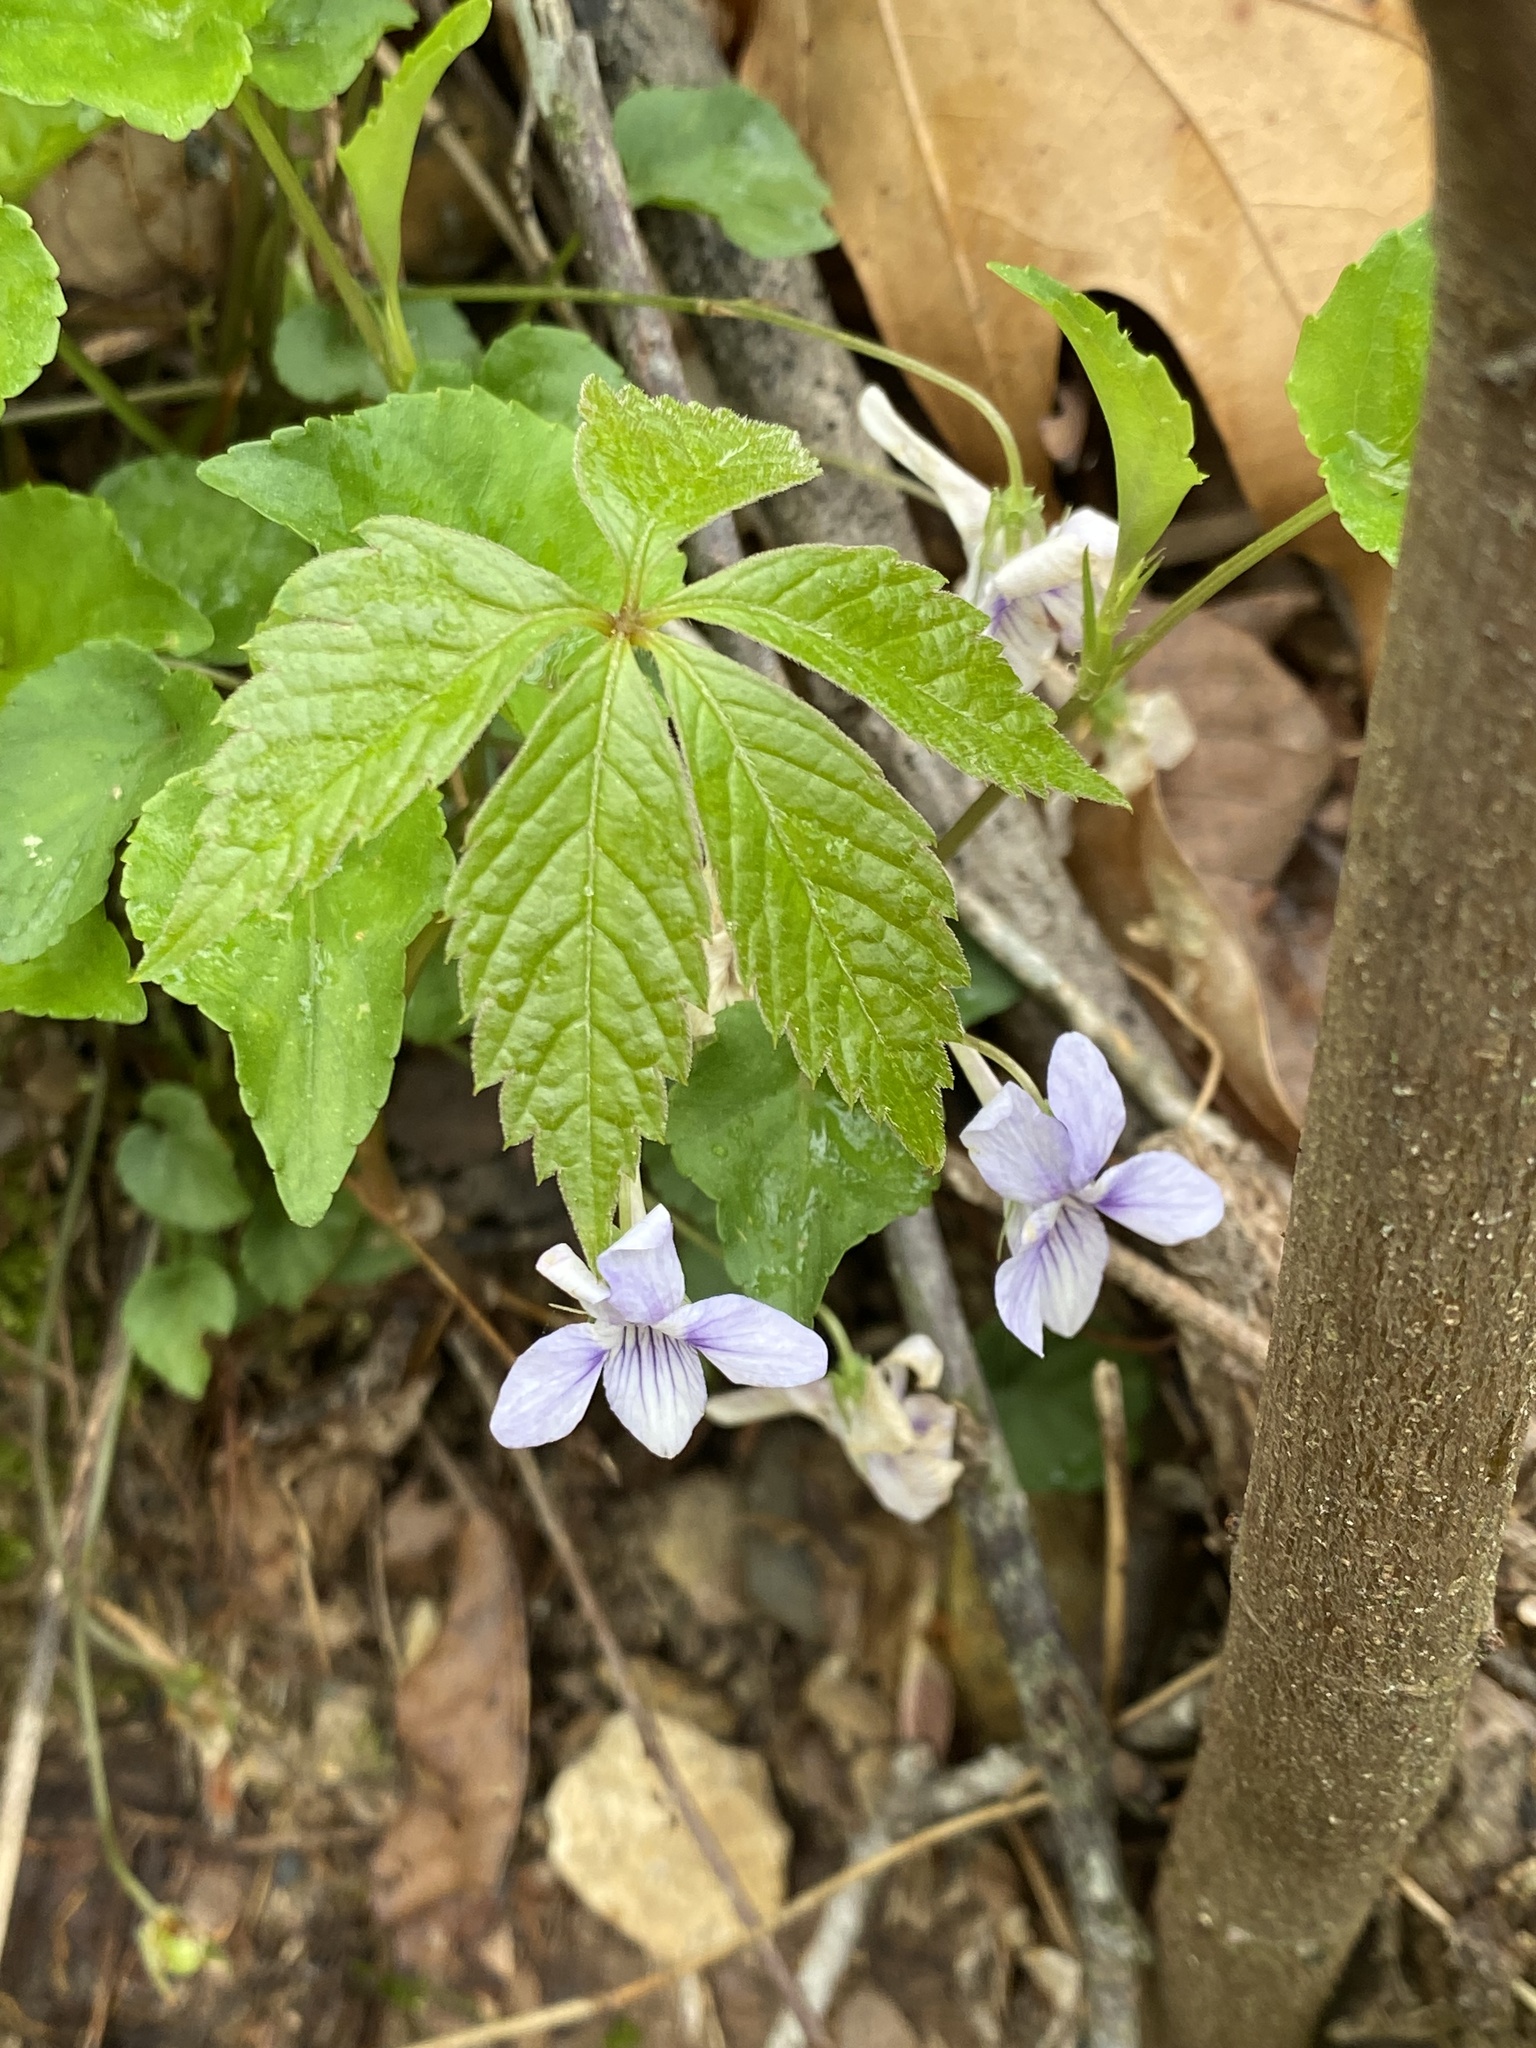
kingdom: Plantae
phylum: Tracheophyta
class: Magnoliopsida
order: Malpighiales
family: Violaceae
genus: Viola
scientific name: Viola rostrata
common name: Long-spur violet
